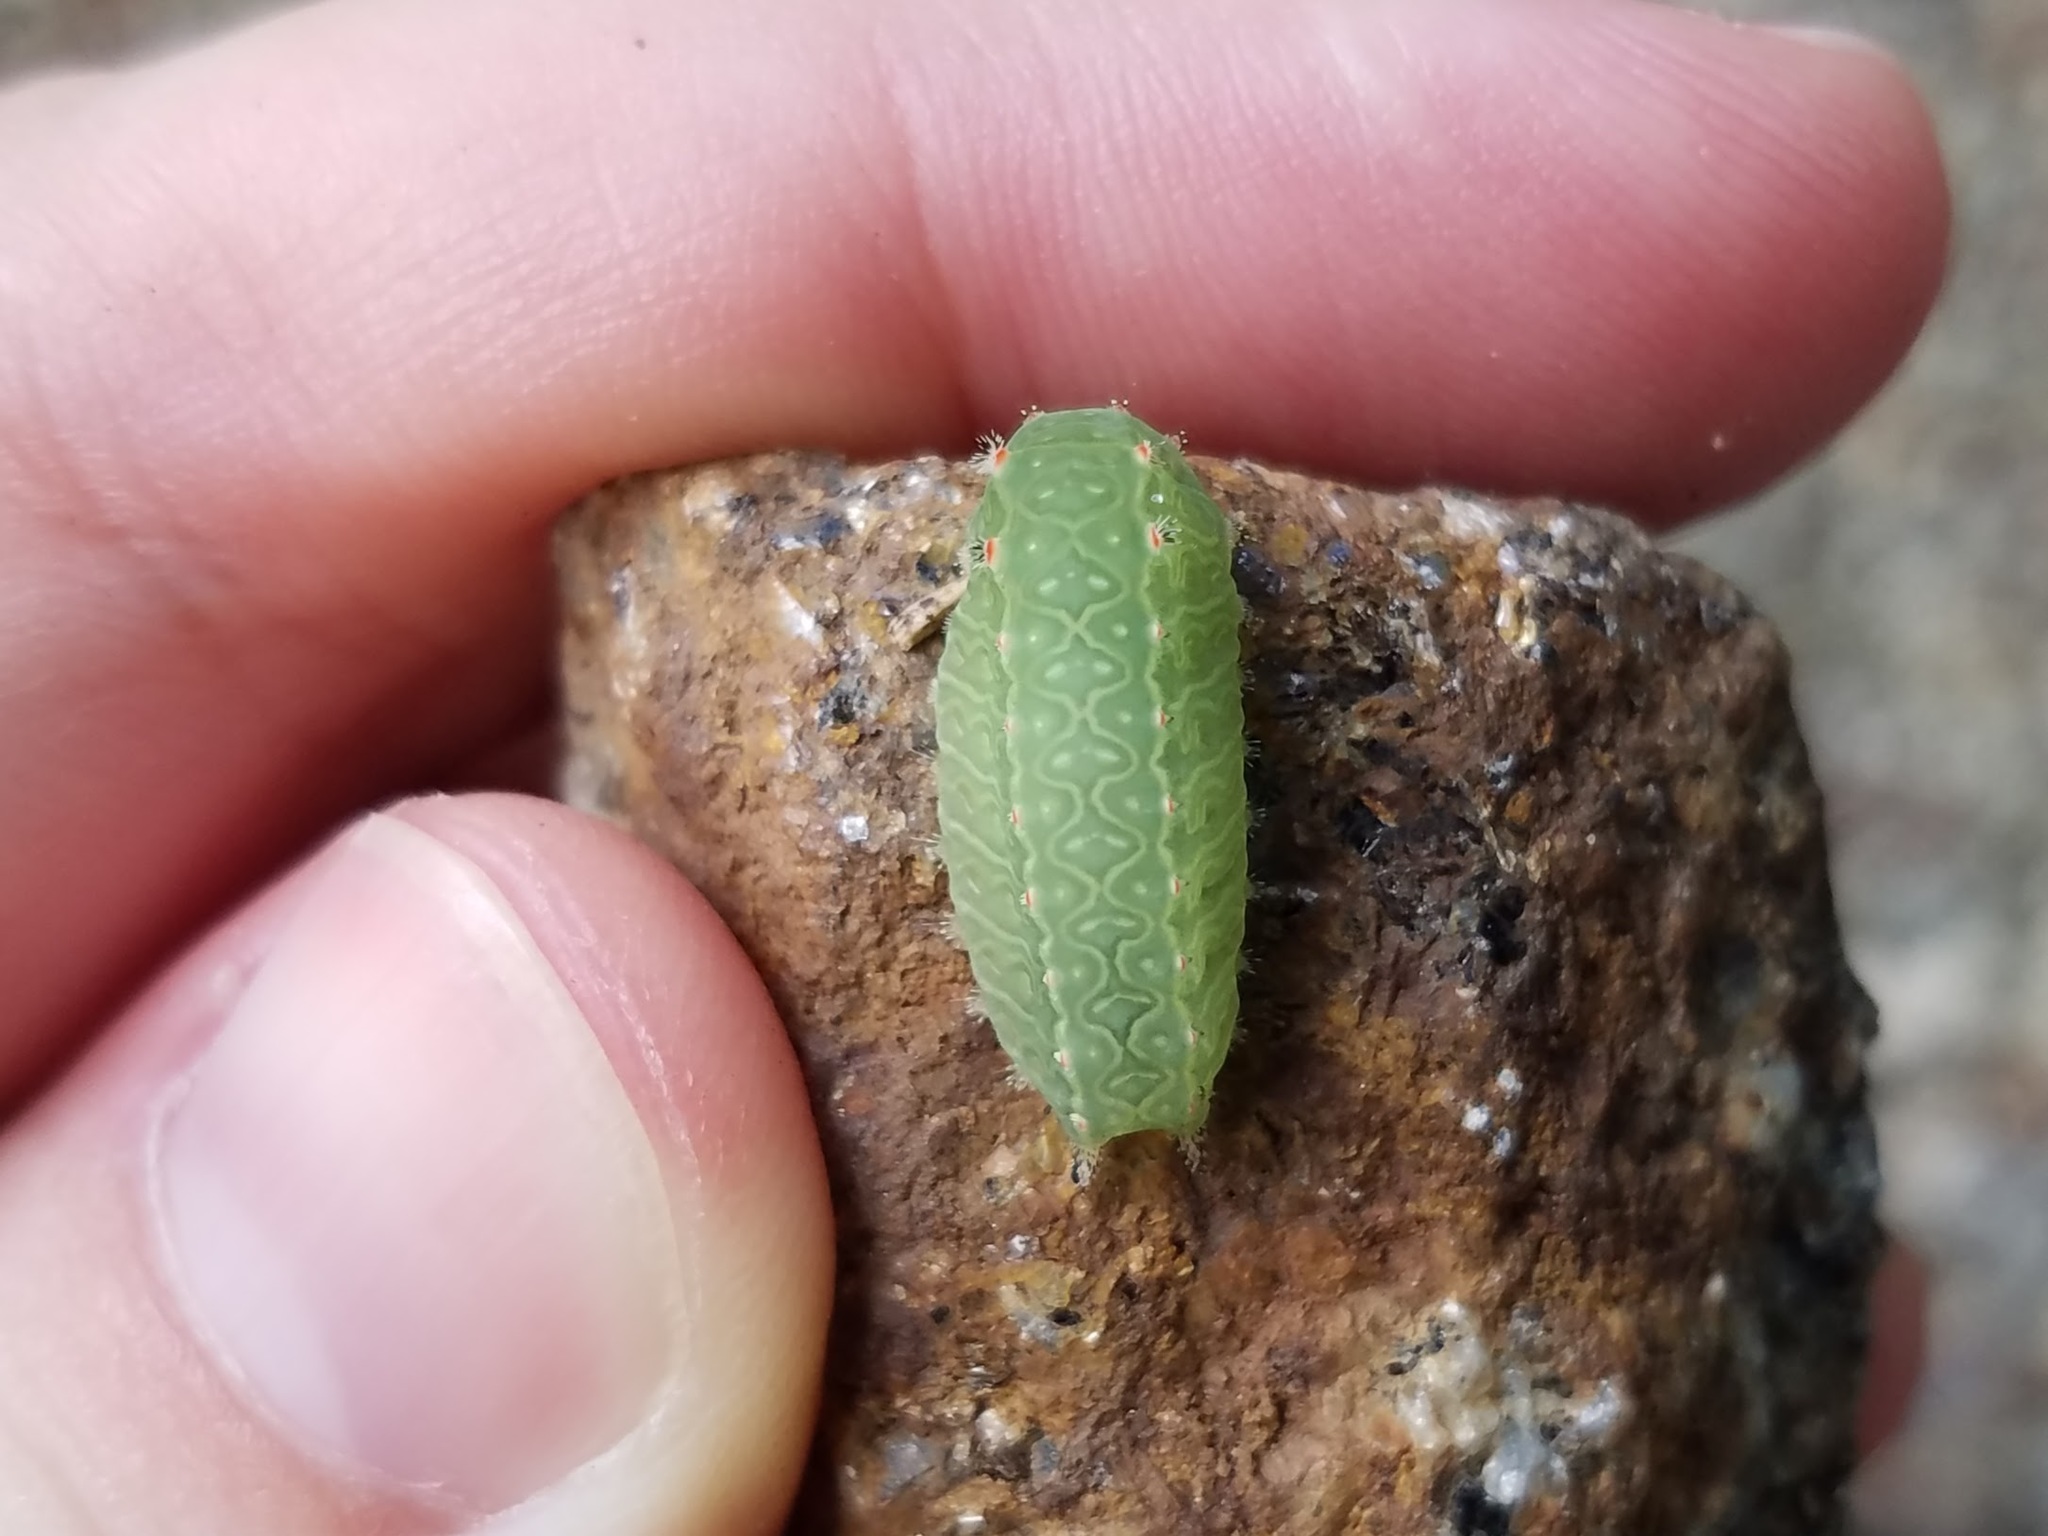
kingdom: Animalia
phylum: Arthropoda
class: Insecta
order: Lepidoptera
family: Limacodidae
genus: Natada
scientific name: Natada nasoni
